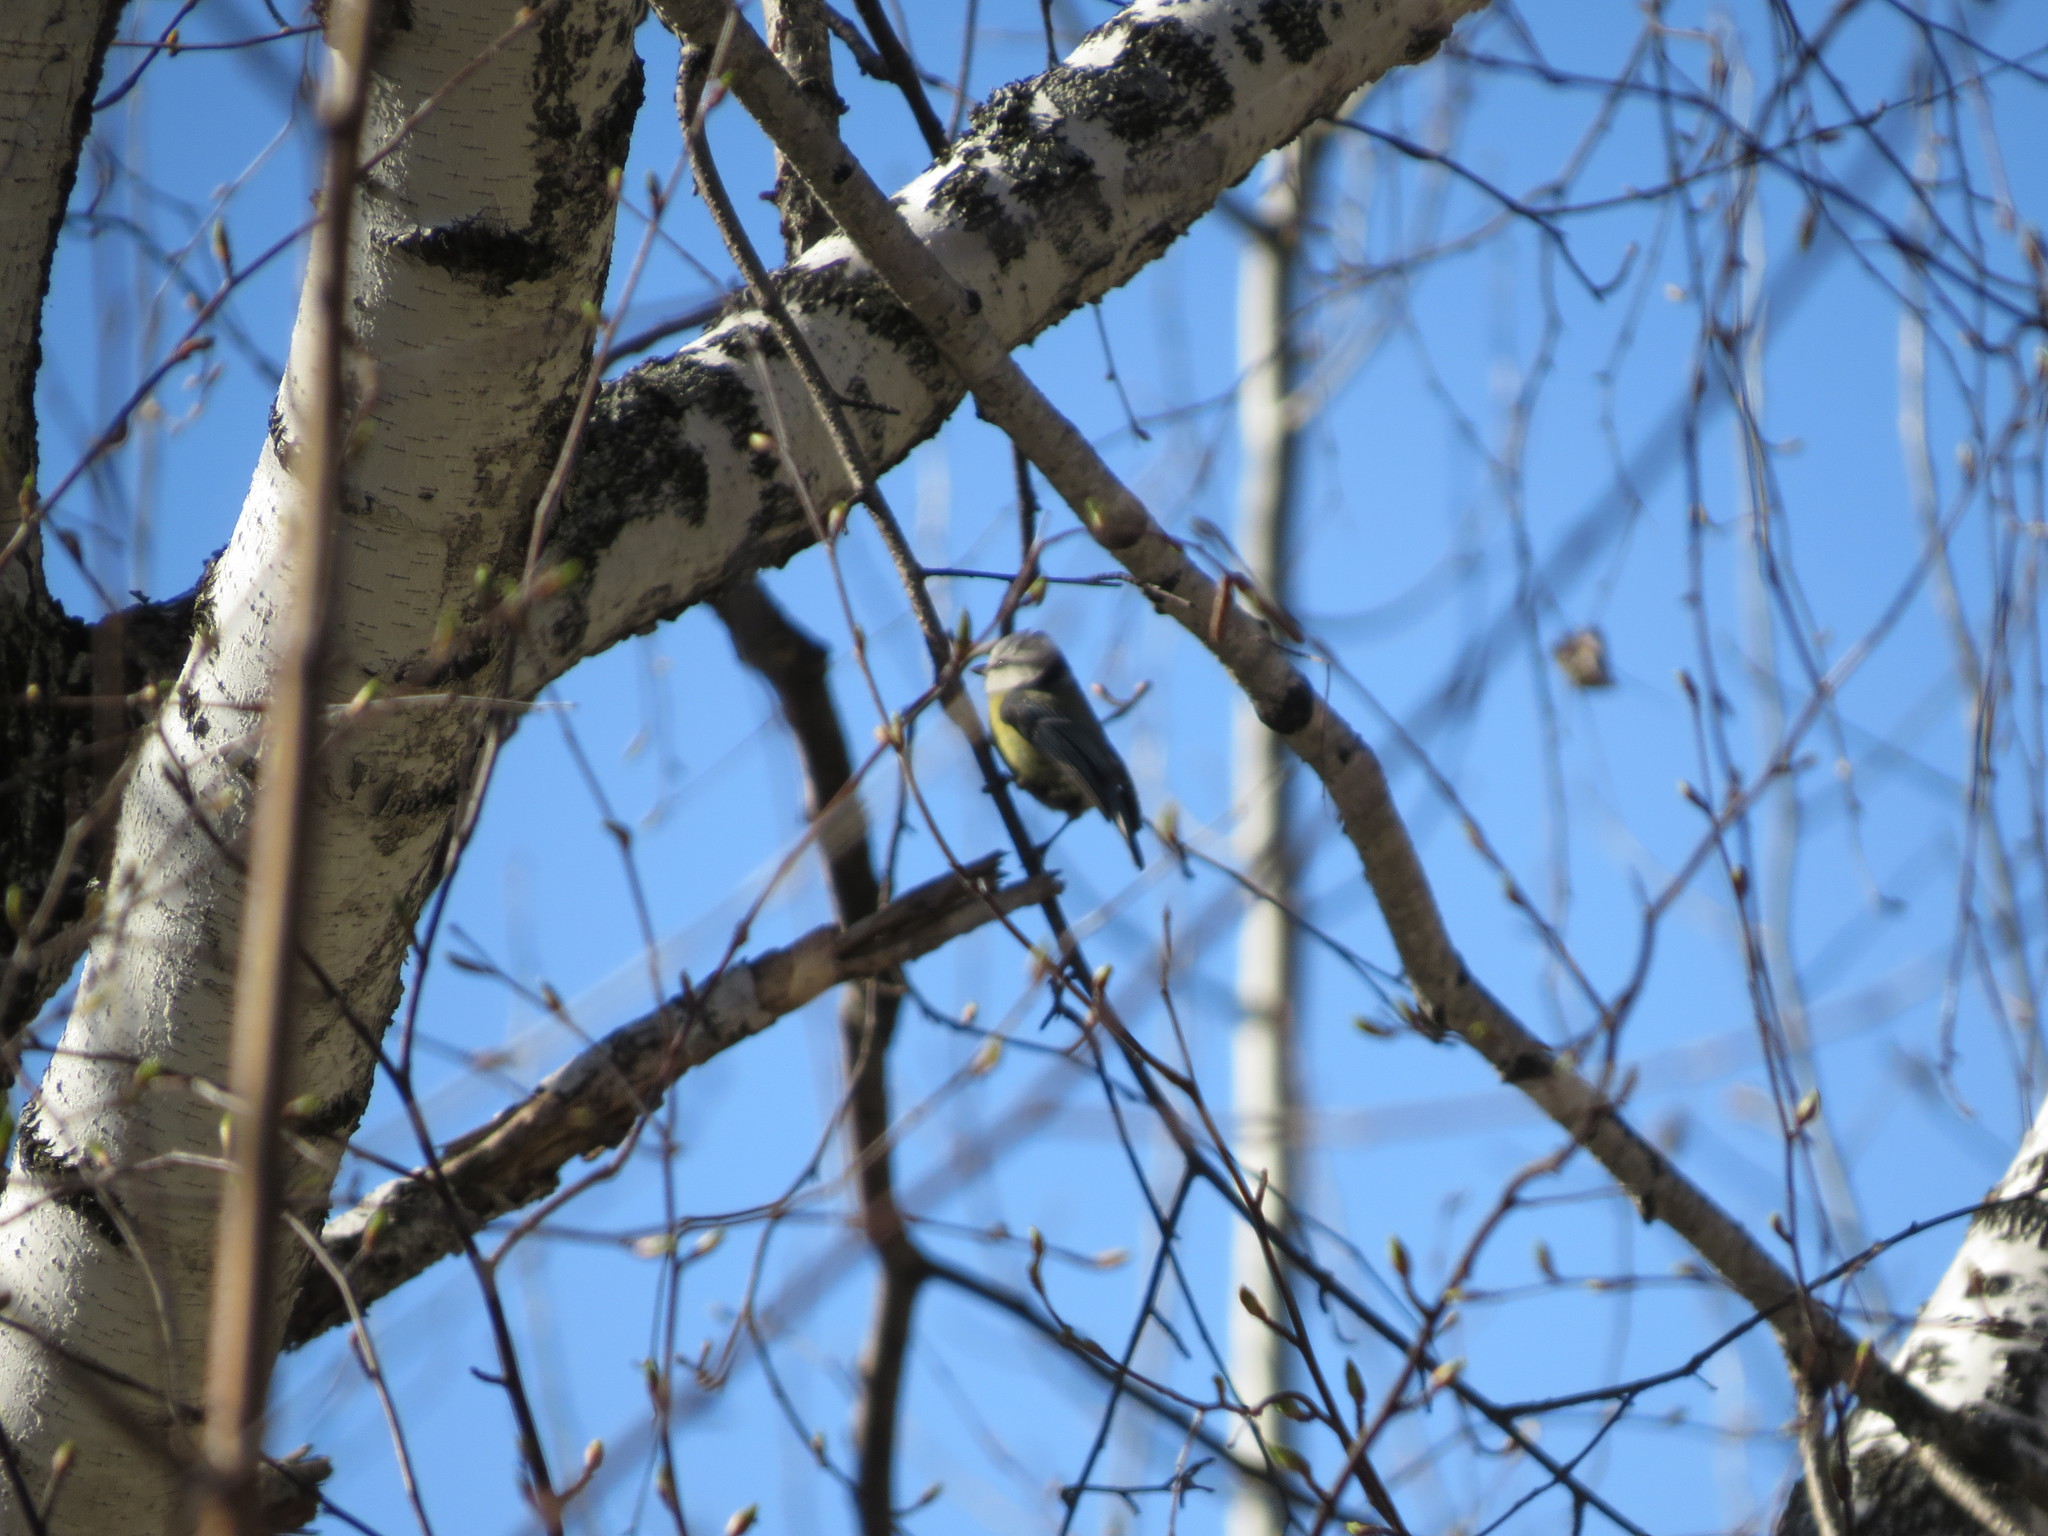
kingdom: Animalia
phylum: Chordata
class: Aves
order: Passeriformes
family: Paridae
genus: Cyanistes
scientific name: Cyanistes caeruleus
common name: Eurasian blue tit
